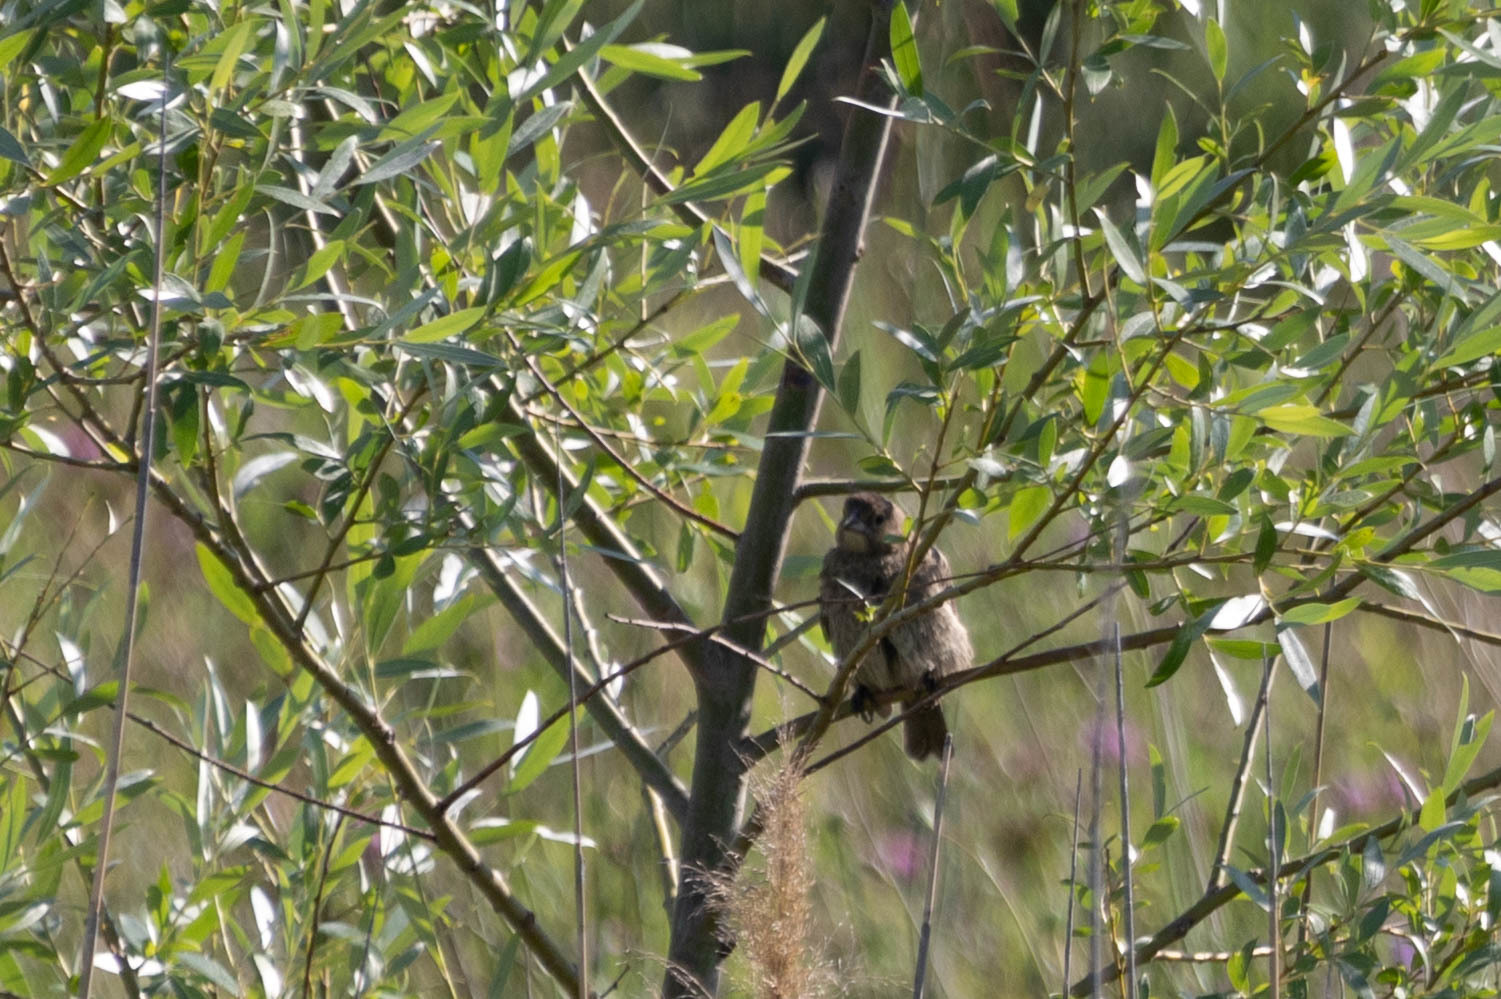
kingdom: Animalia
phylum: Chordata
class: Aves
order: Passeriformes
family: Icteridae
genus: Molothrus
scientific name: Molothrus ater
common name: Brown-headed cowbird
